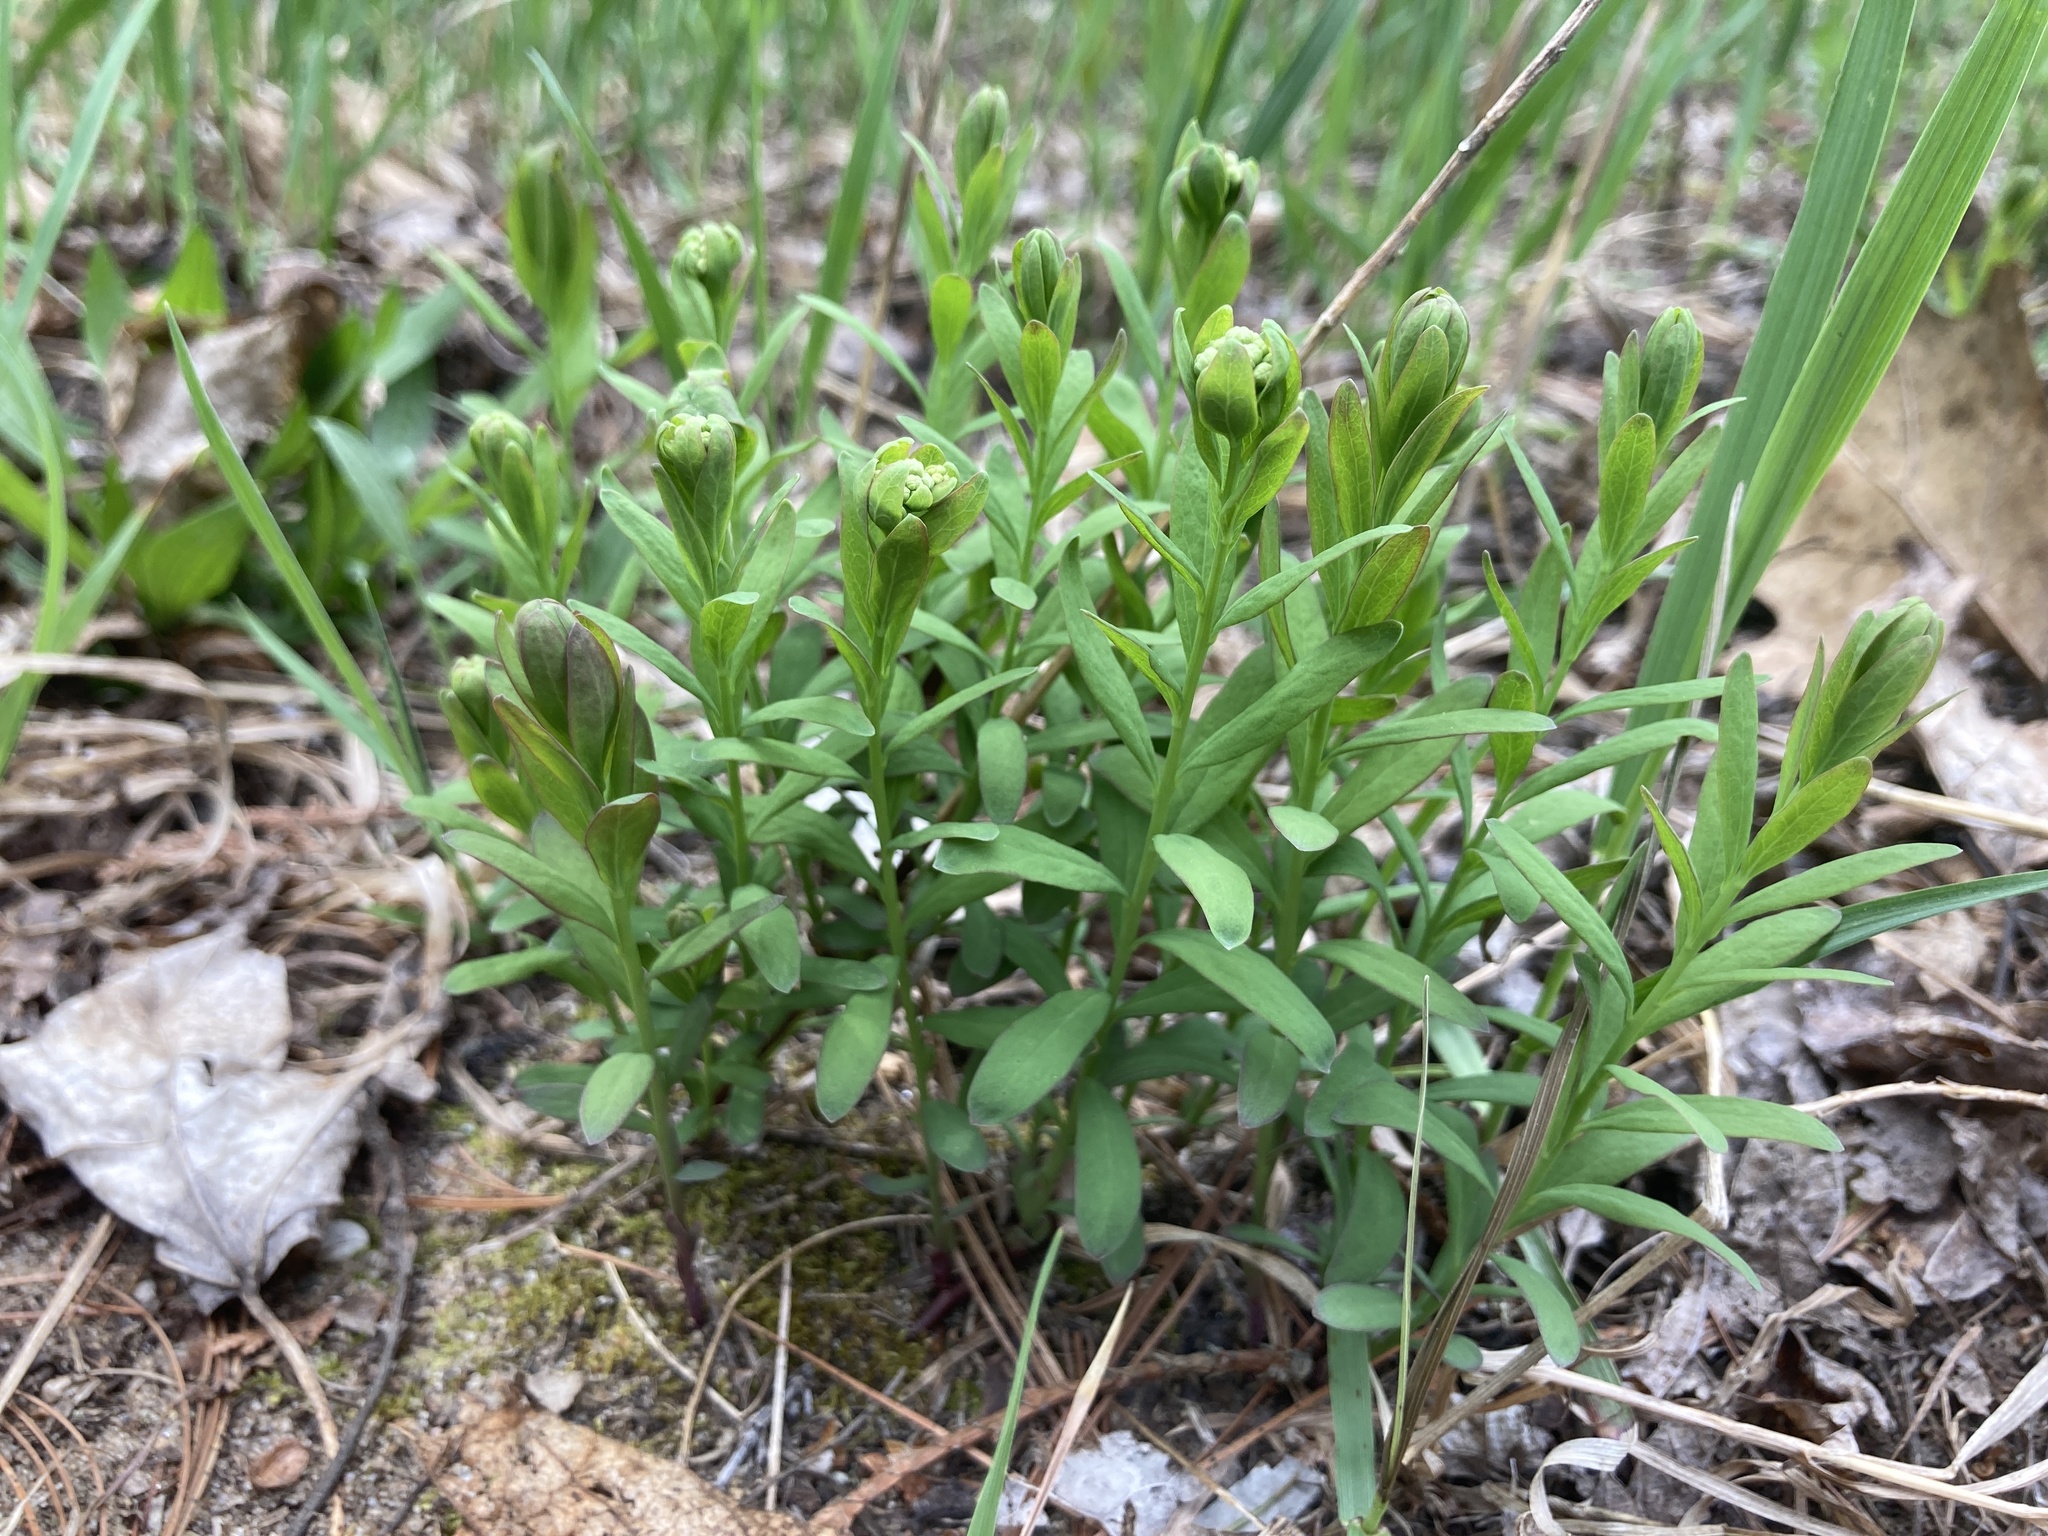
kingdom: Plantae
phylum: Tracheophyta
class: Magnoliopsida
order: Santalales
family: Comandraceae
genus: Comandra
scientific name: Comandra umbellata
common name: Bastard toadflax
